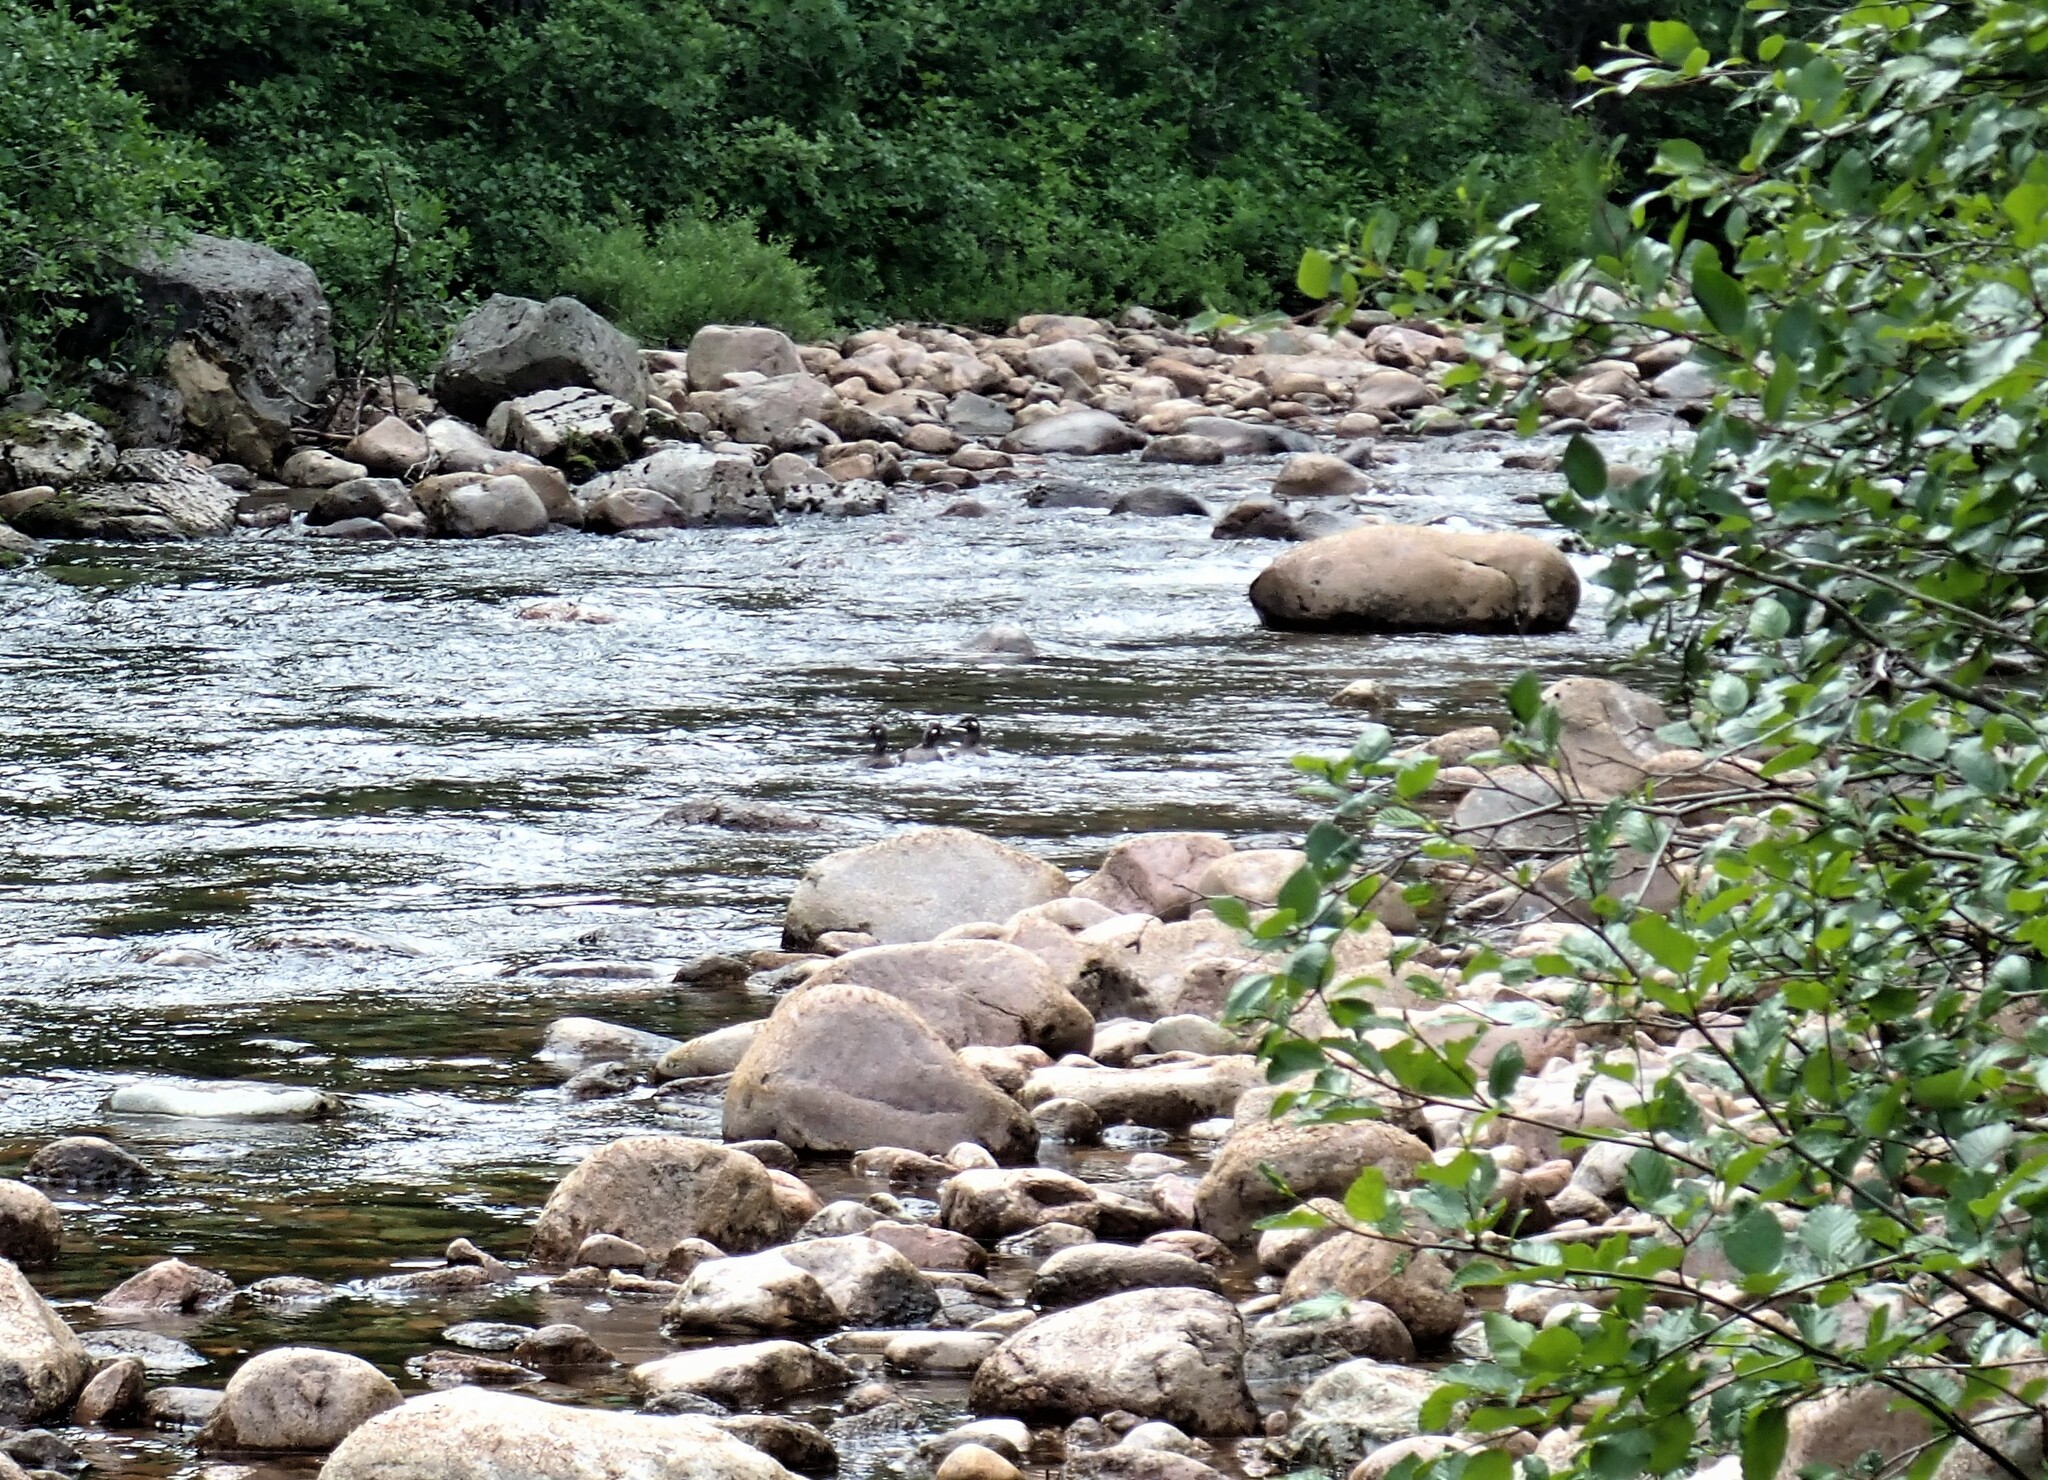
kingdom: Animalia
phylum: Chordata
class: Aves
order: Anseriformes
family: Anatidae
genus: Histrionicus
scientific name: Histrionicus histrionicus
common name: Harlequin duck
